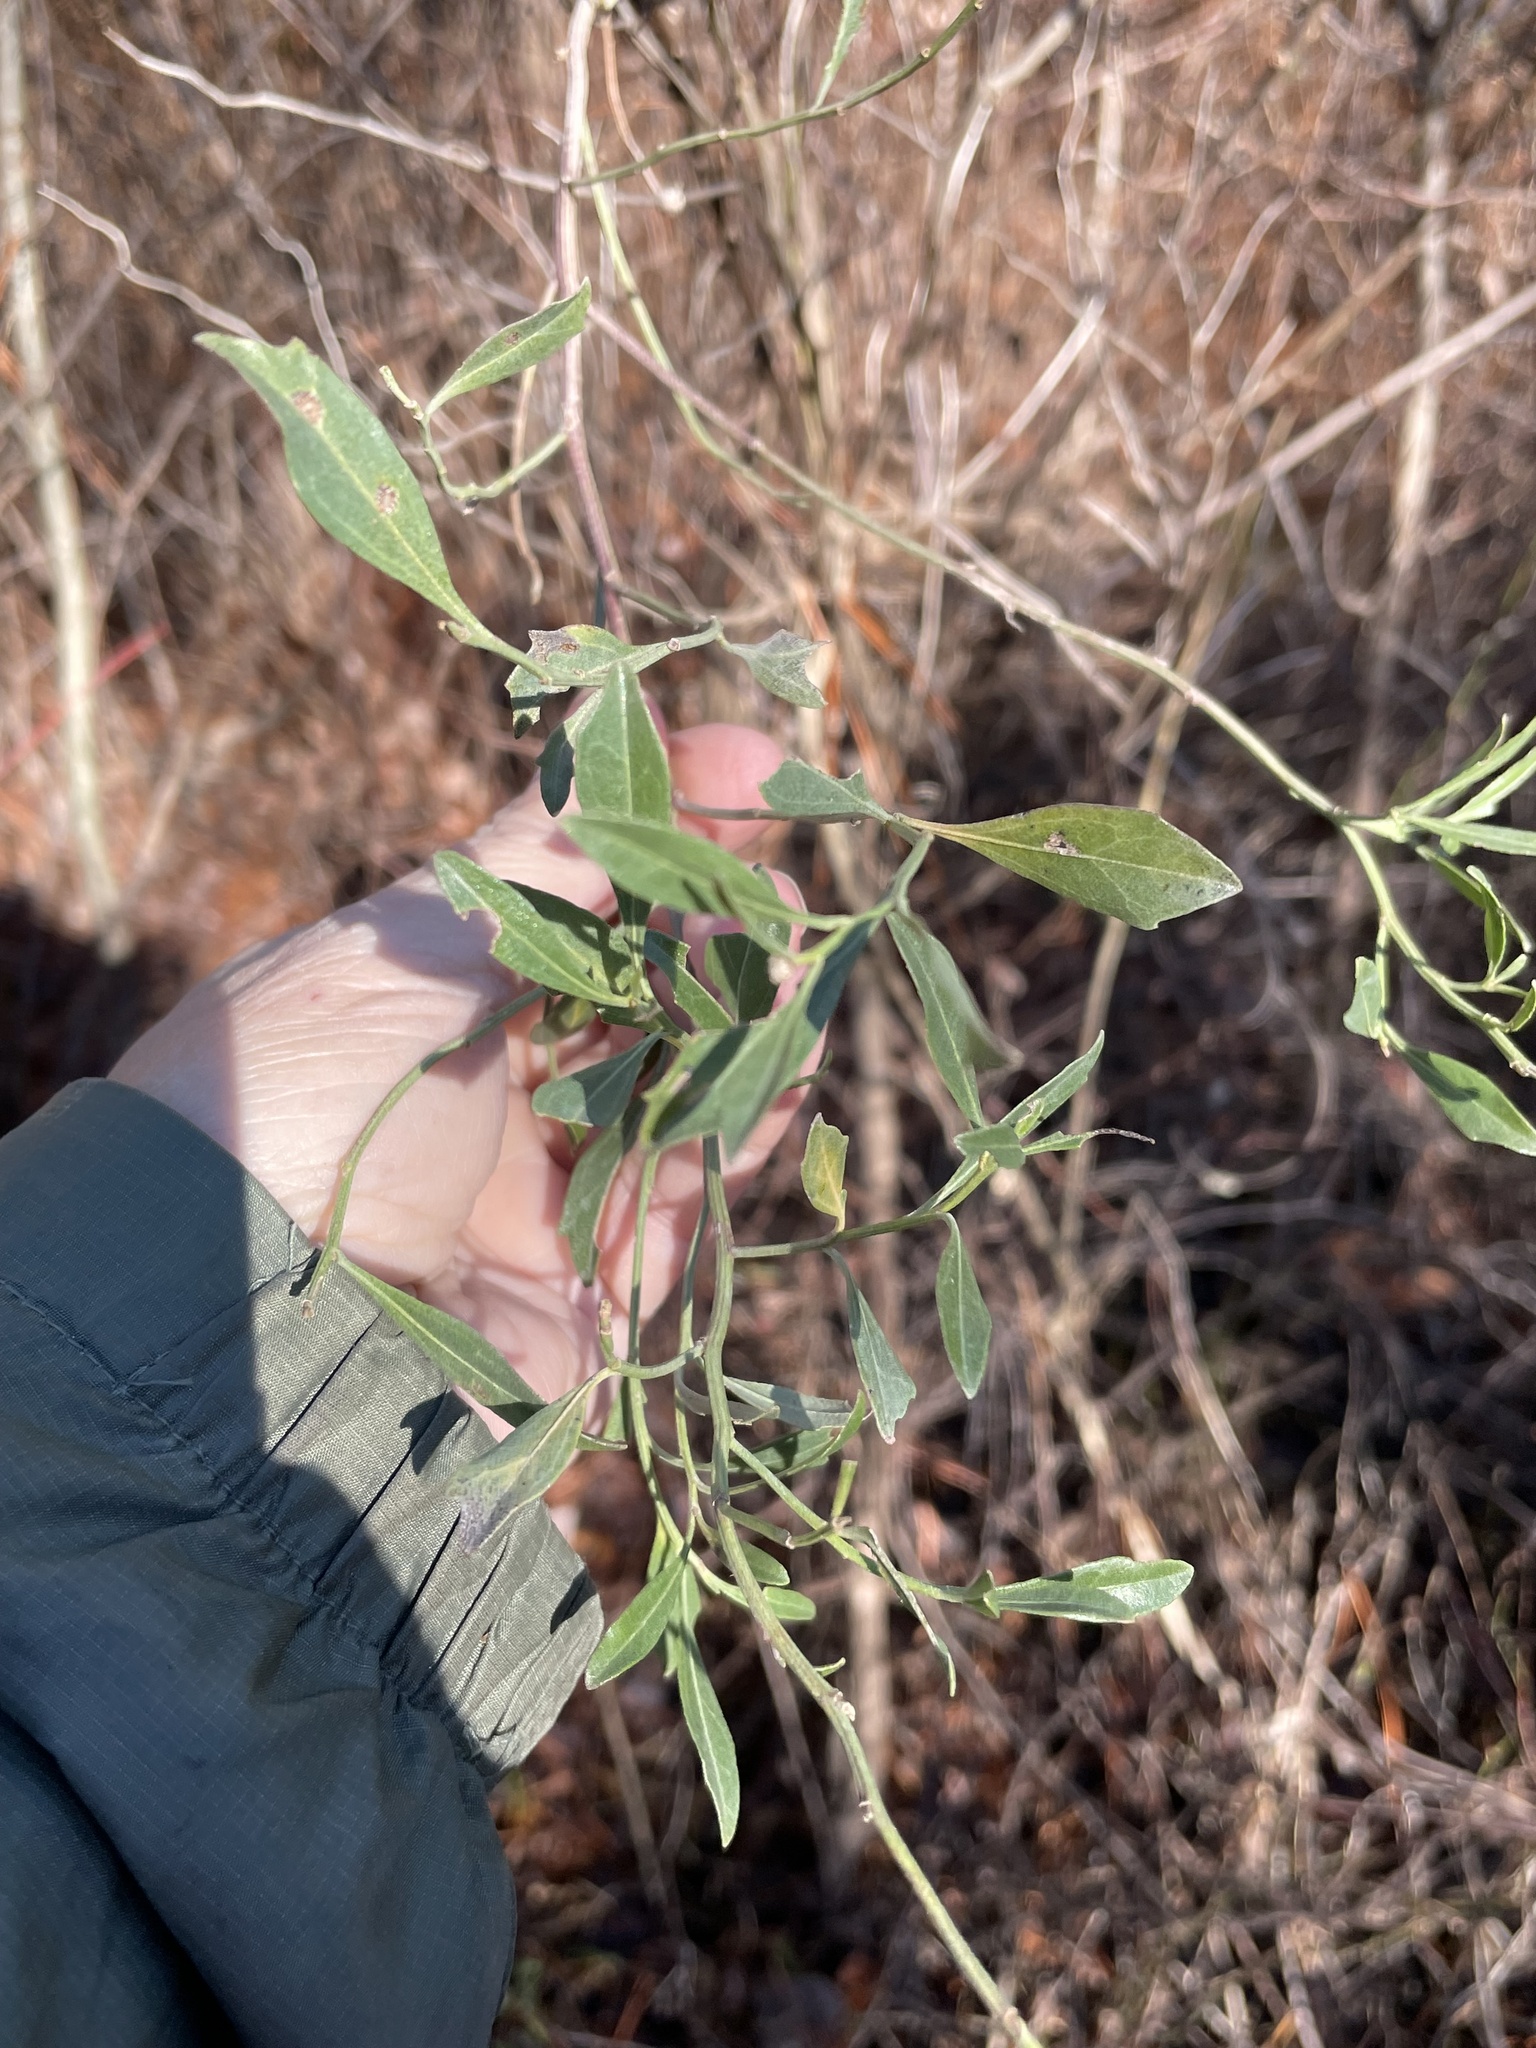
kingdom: Plantae
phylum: Tracheophyta
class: Magnoliopsida
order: Asterales
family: Asteraceae
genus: Baccharis
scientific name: Baccharis halimifolia
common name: Eastern baccharis
